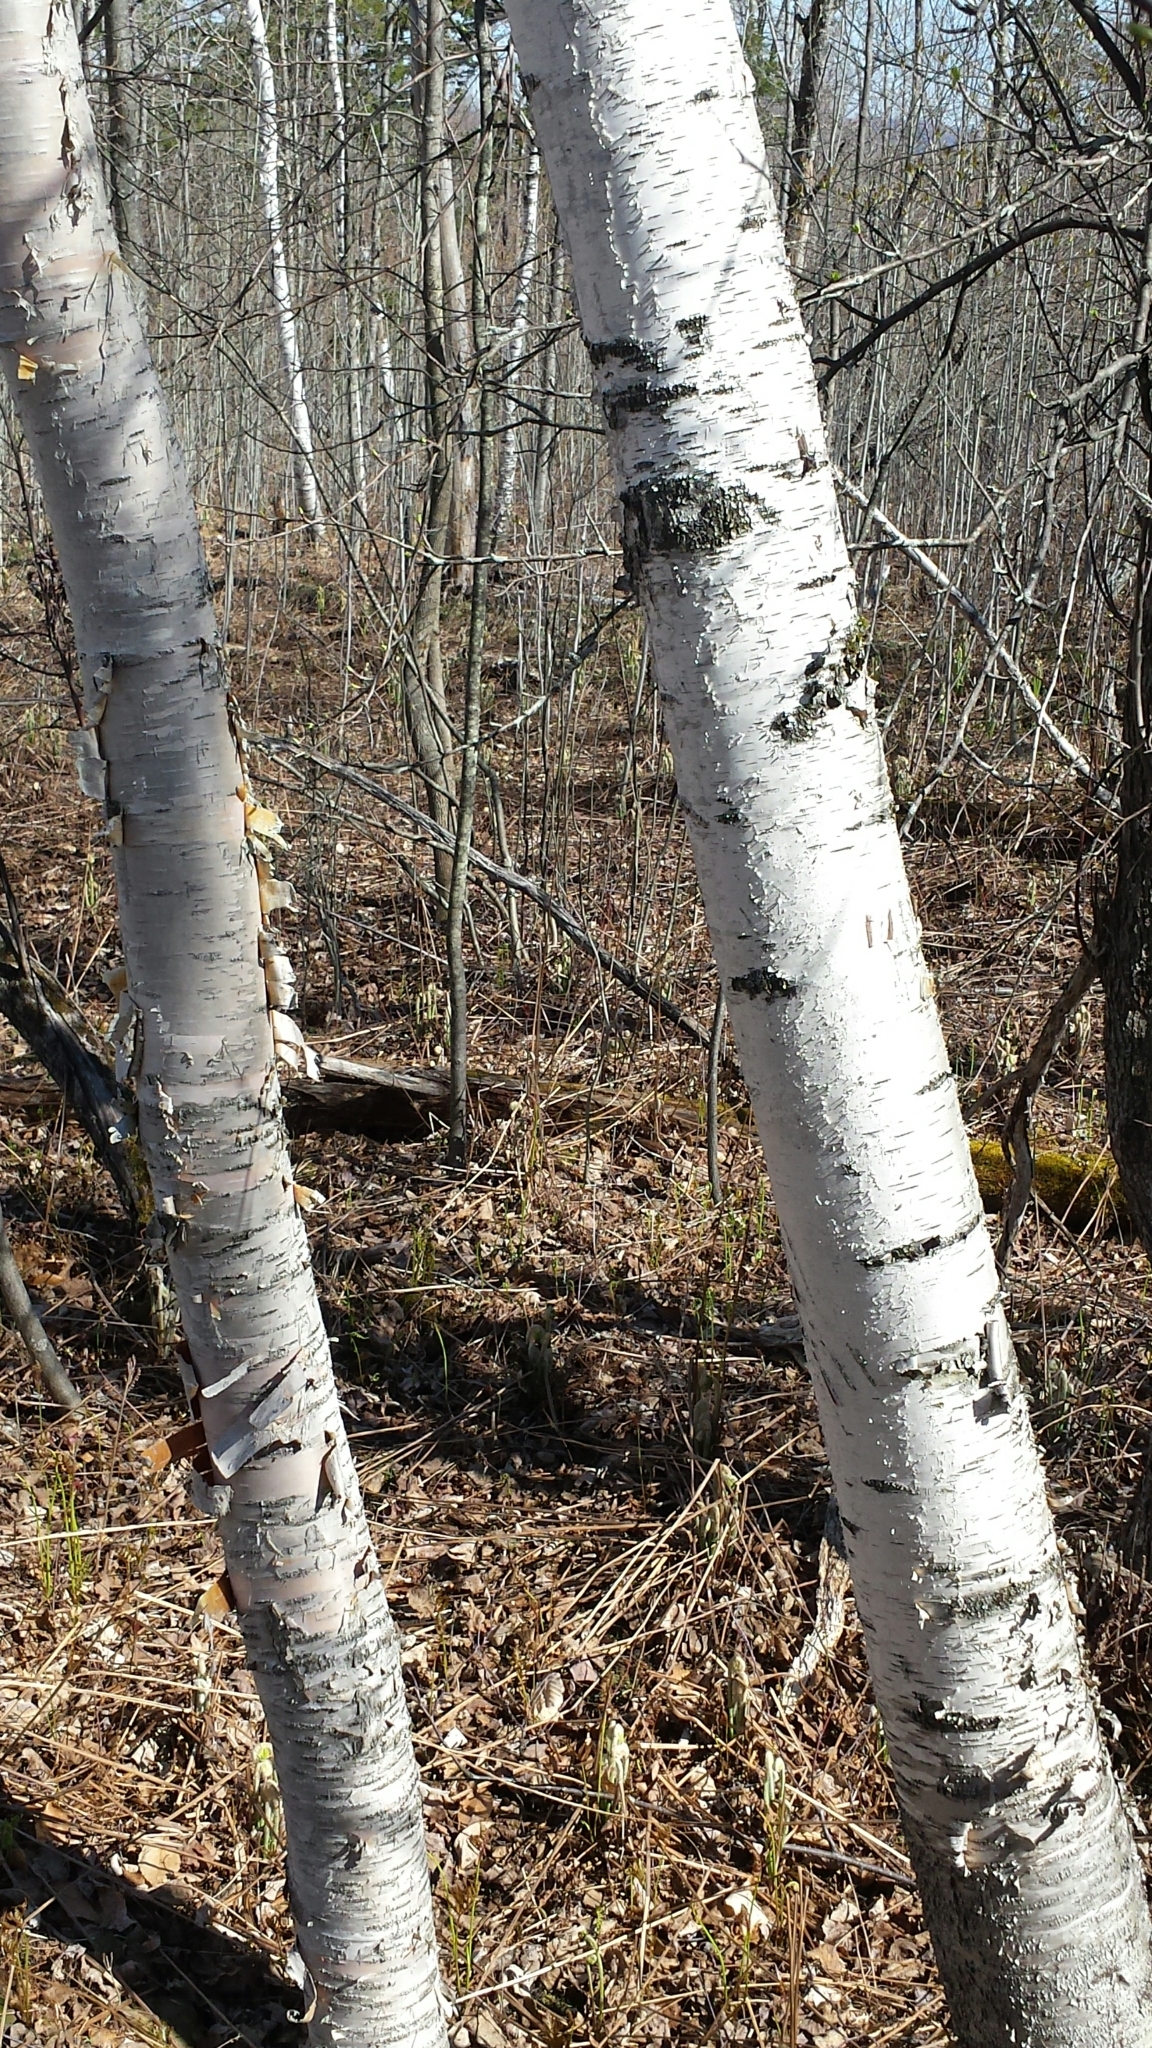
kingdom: Plantae
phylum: Tracheophyta
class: Magnoliopsida
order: Fagales
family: Betulaceae
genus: Betula
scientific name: Betula papyrifera
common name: Paper birch
